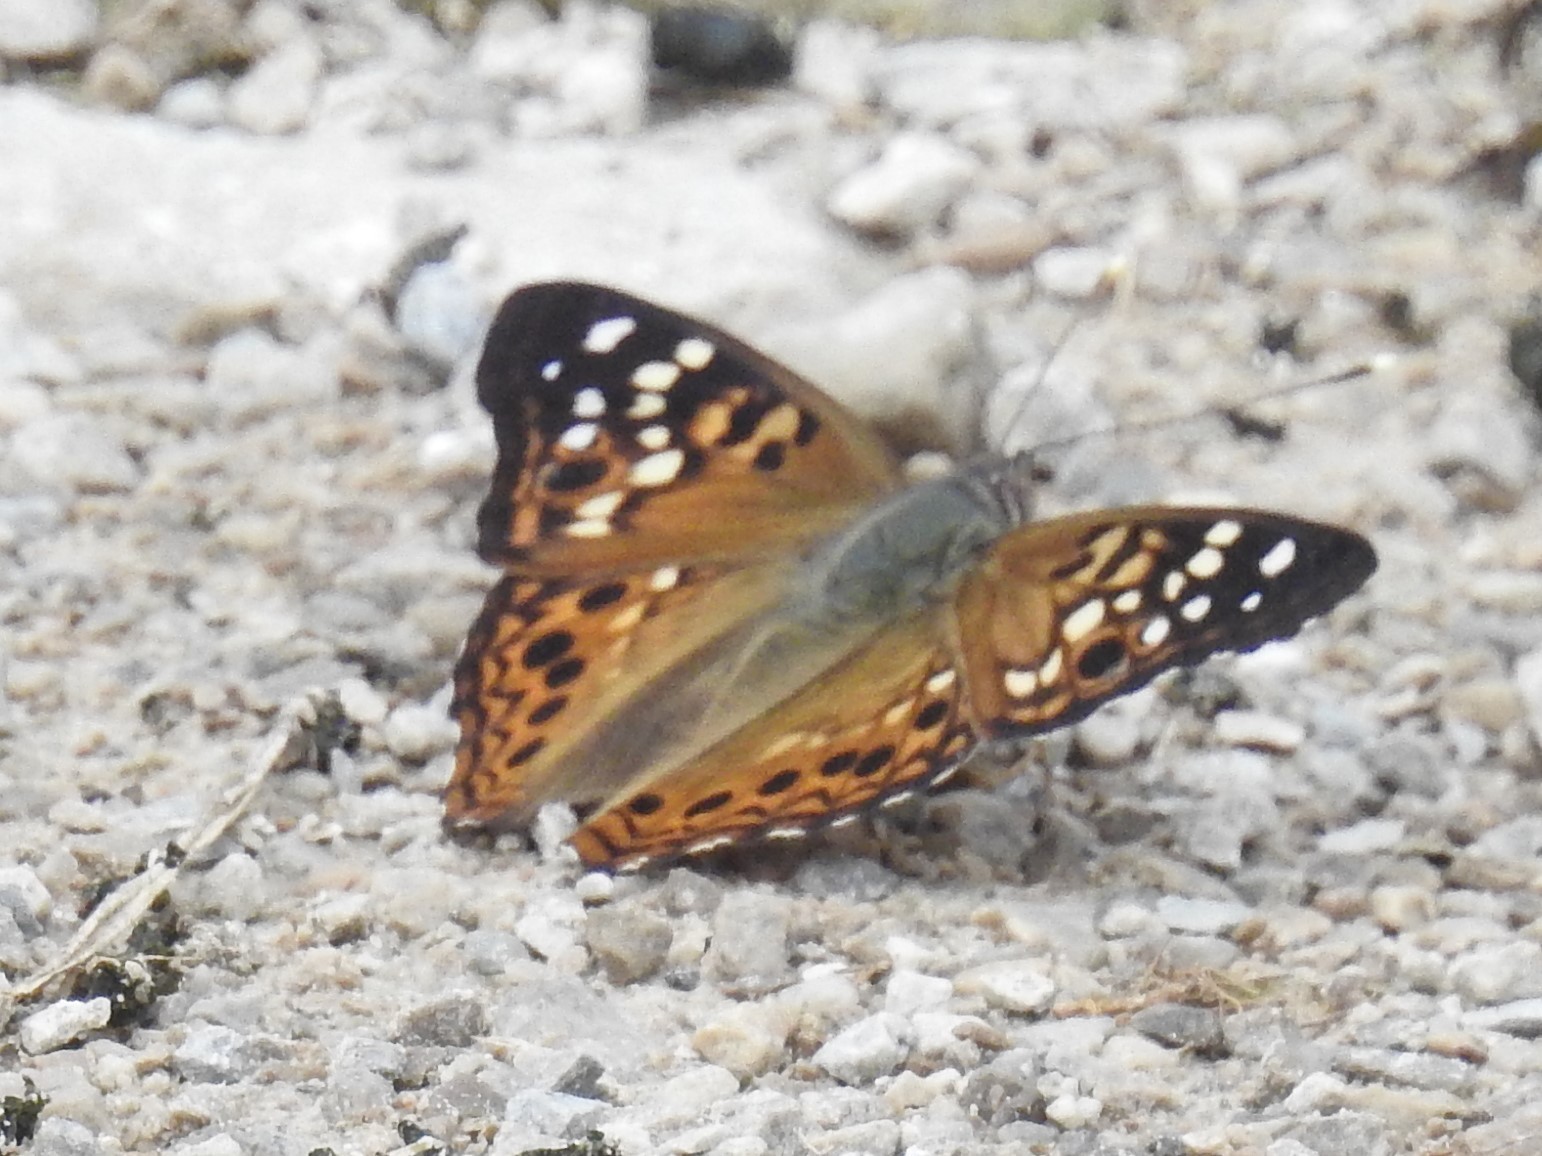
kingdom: Animalia
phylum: Arthropoda
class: Insecta
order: Lepidoptera
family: Nymphalidae
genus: Asterocampa
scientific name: Asterocampa celtis
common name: Hackberry emperor
